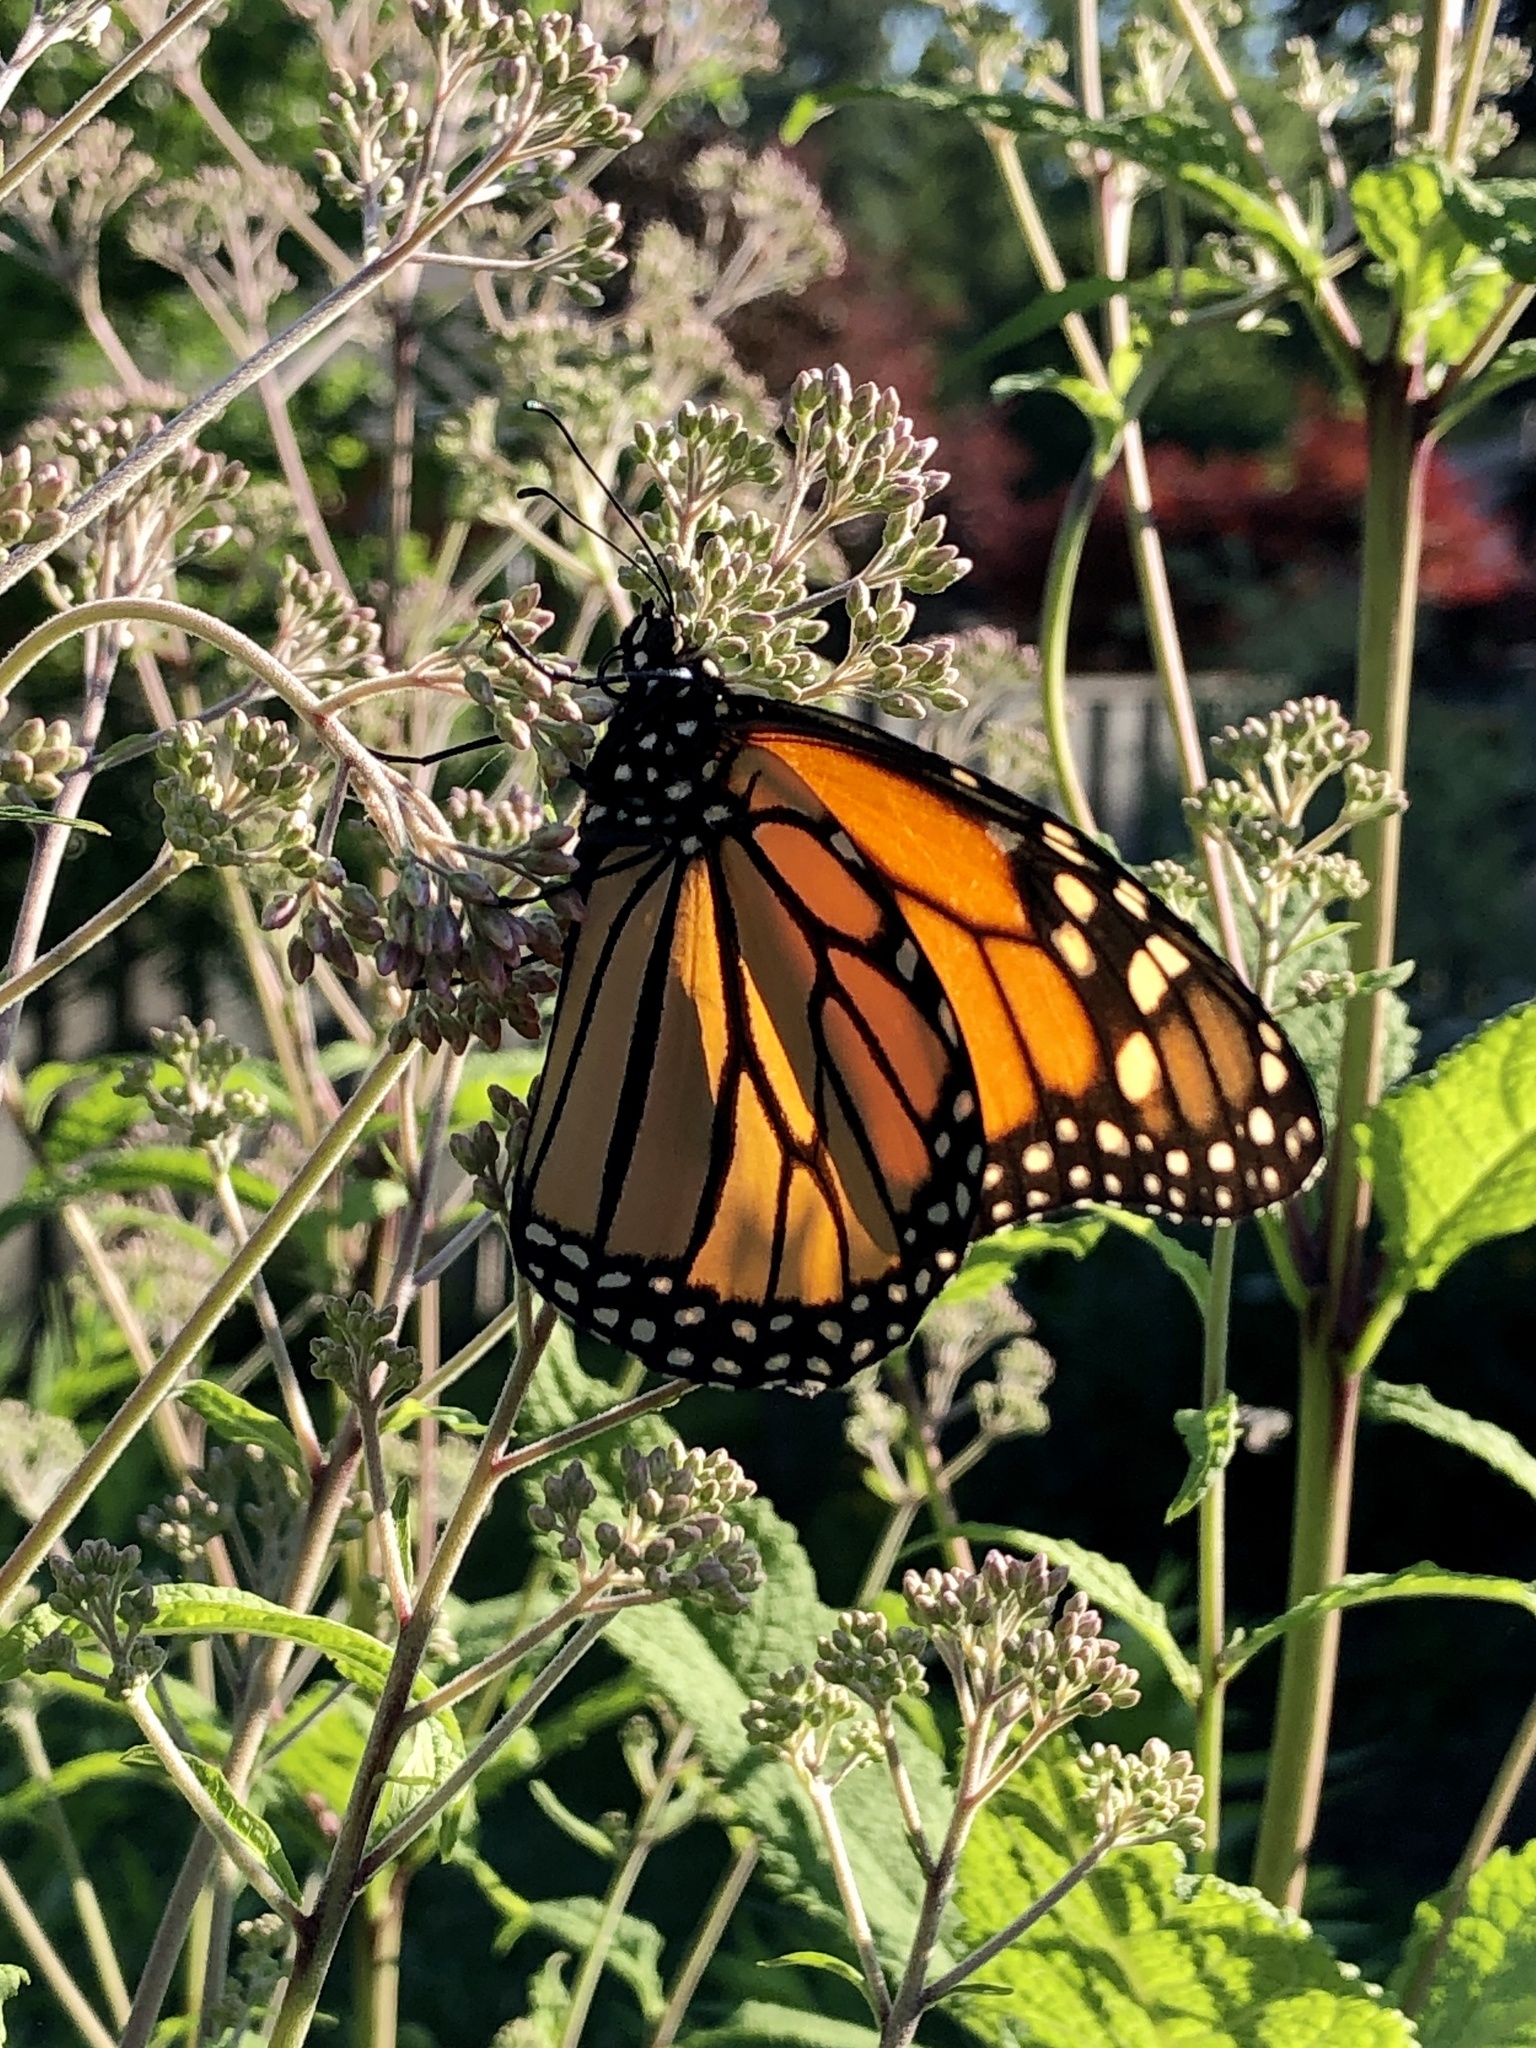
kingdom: Animalia
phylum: Arthropoda
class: Insecta
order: Lepidoptera
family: Nymphalidae
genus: Danaus
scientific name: Danaus plexippus
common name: Monarch
